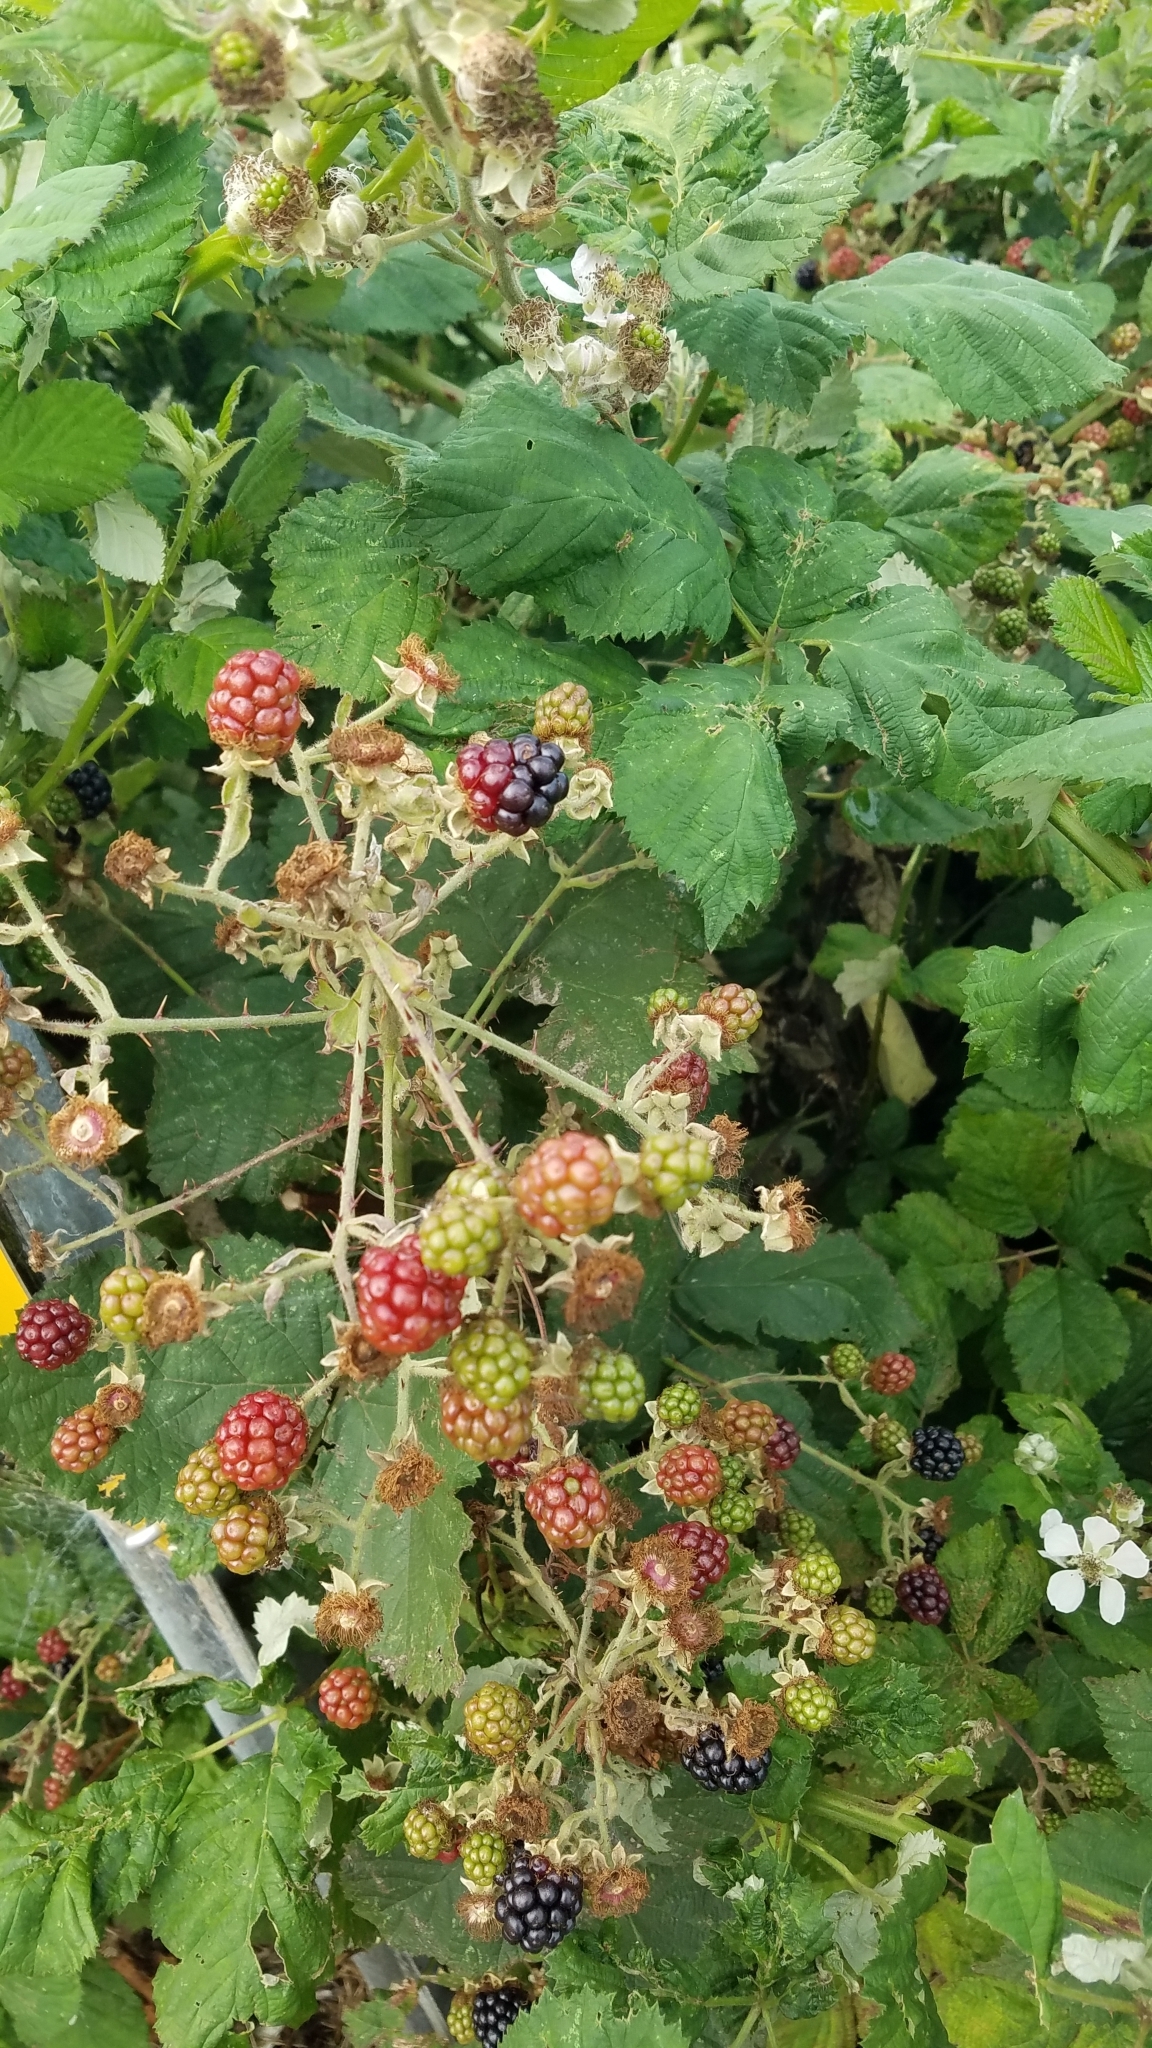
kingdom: Plantae
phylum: Tracheophyta
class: Magnoliopsida
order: Rosales
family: Rosaceae
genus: Rubus
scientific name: Rubus armeniacus
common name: Himalayan blackberry
